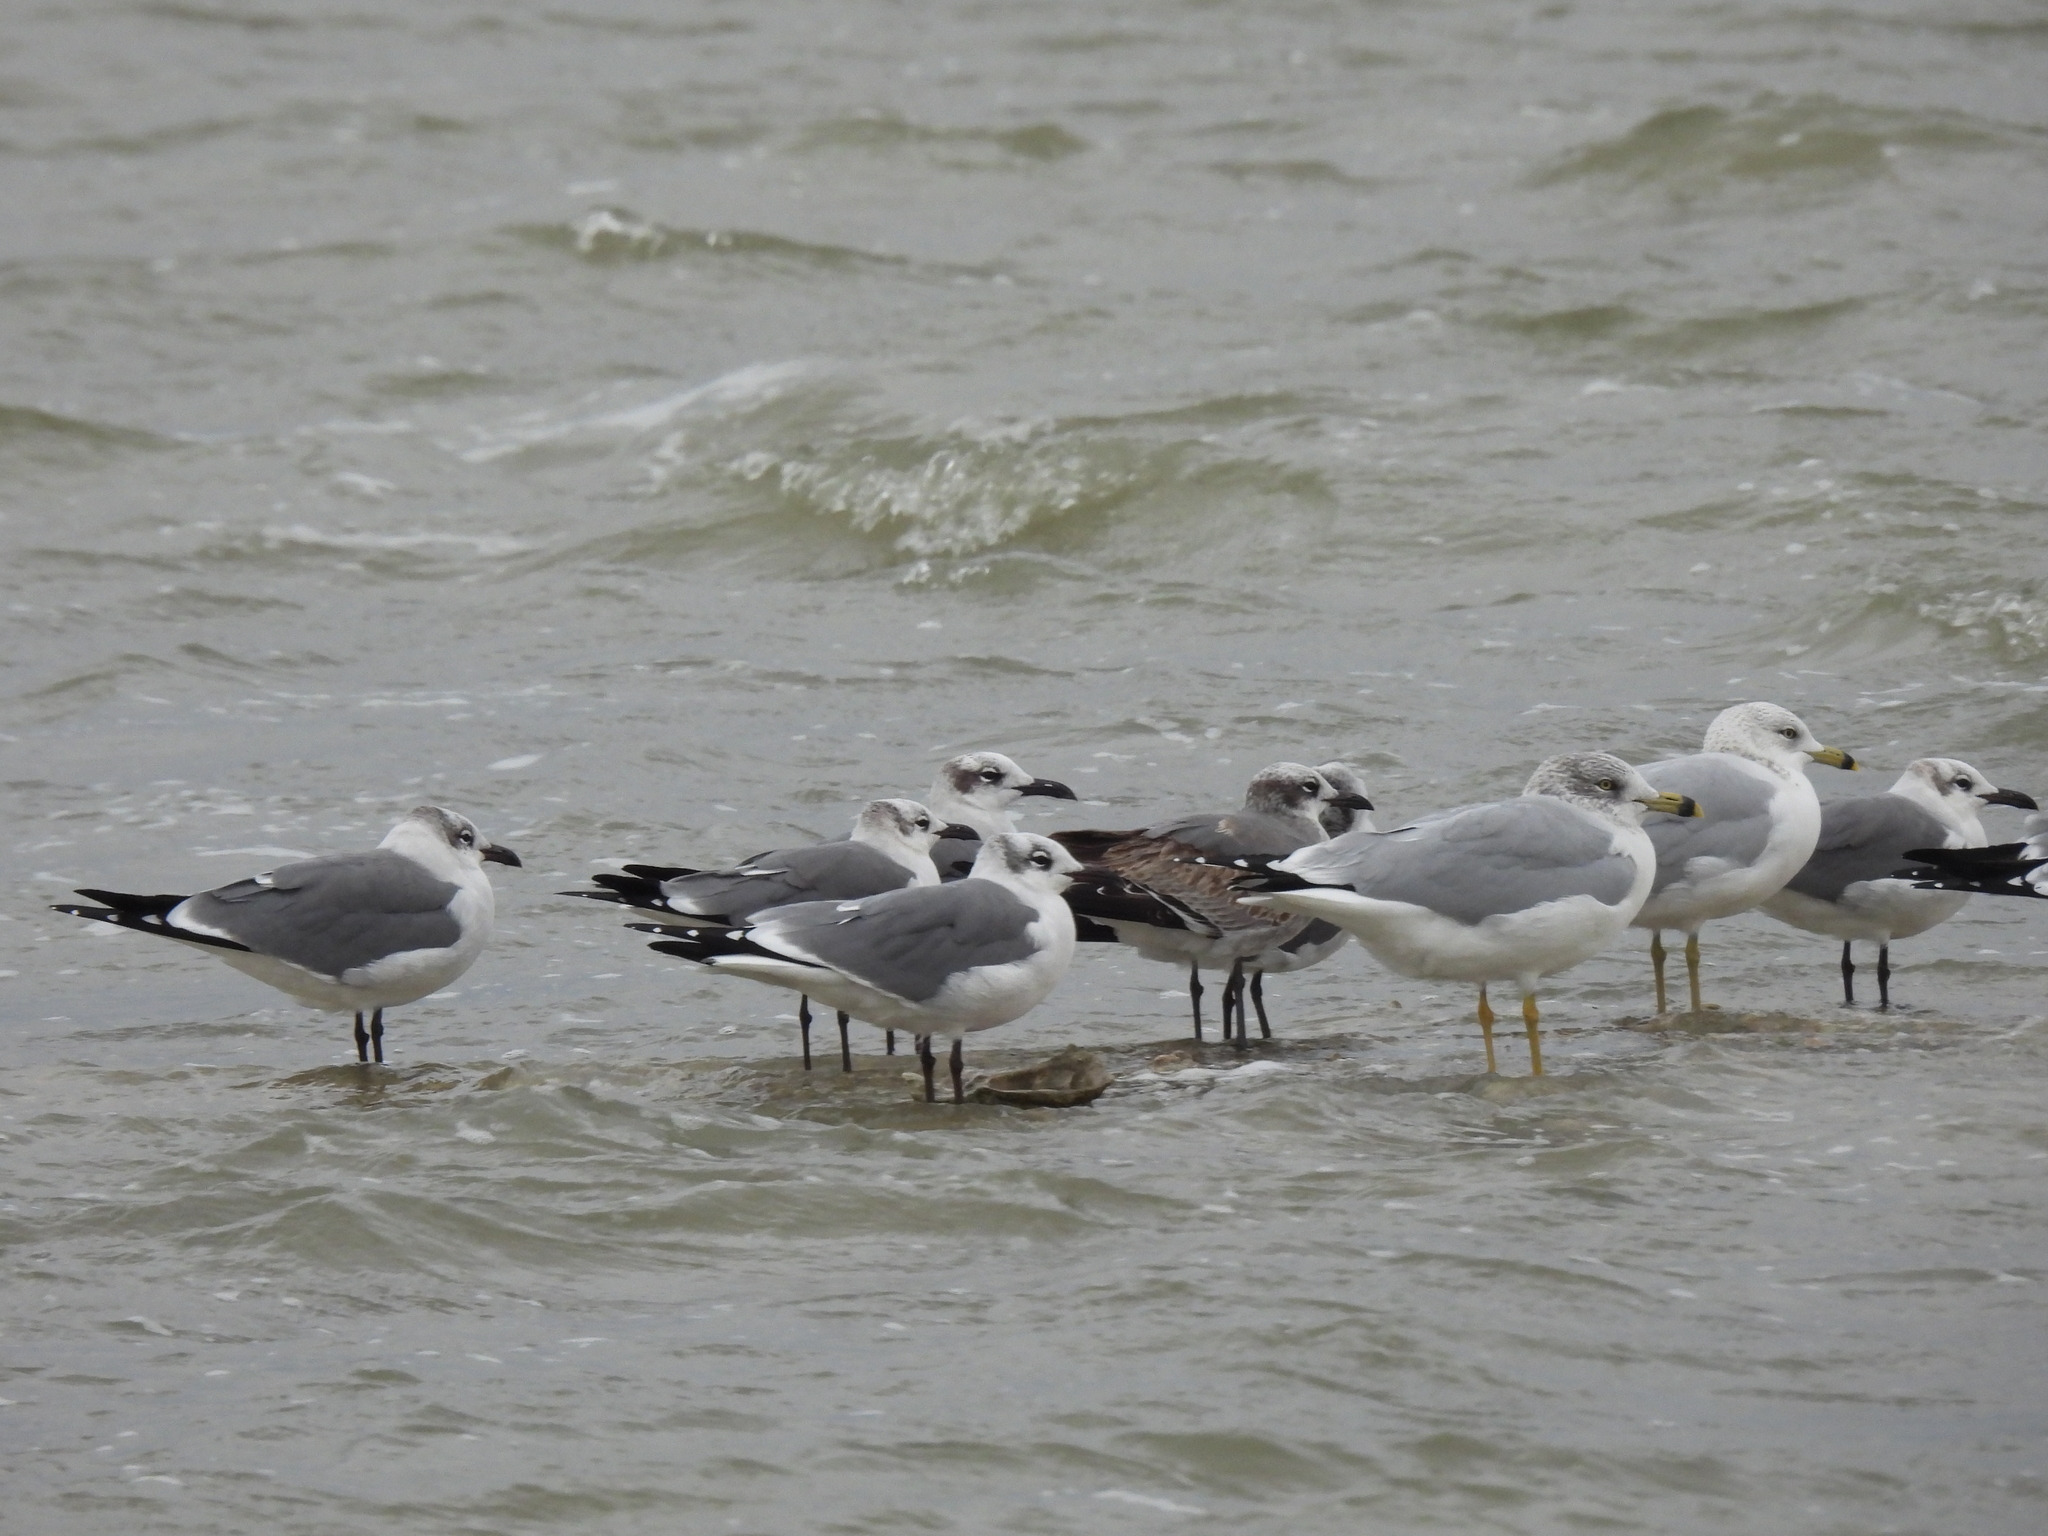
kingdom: Animalia
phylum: Chordata
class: Aves
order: Charadriiformes
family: Laridae
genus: Larus
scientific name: Larus delawarensis
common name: Ring-billed gull
